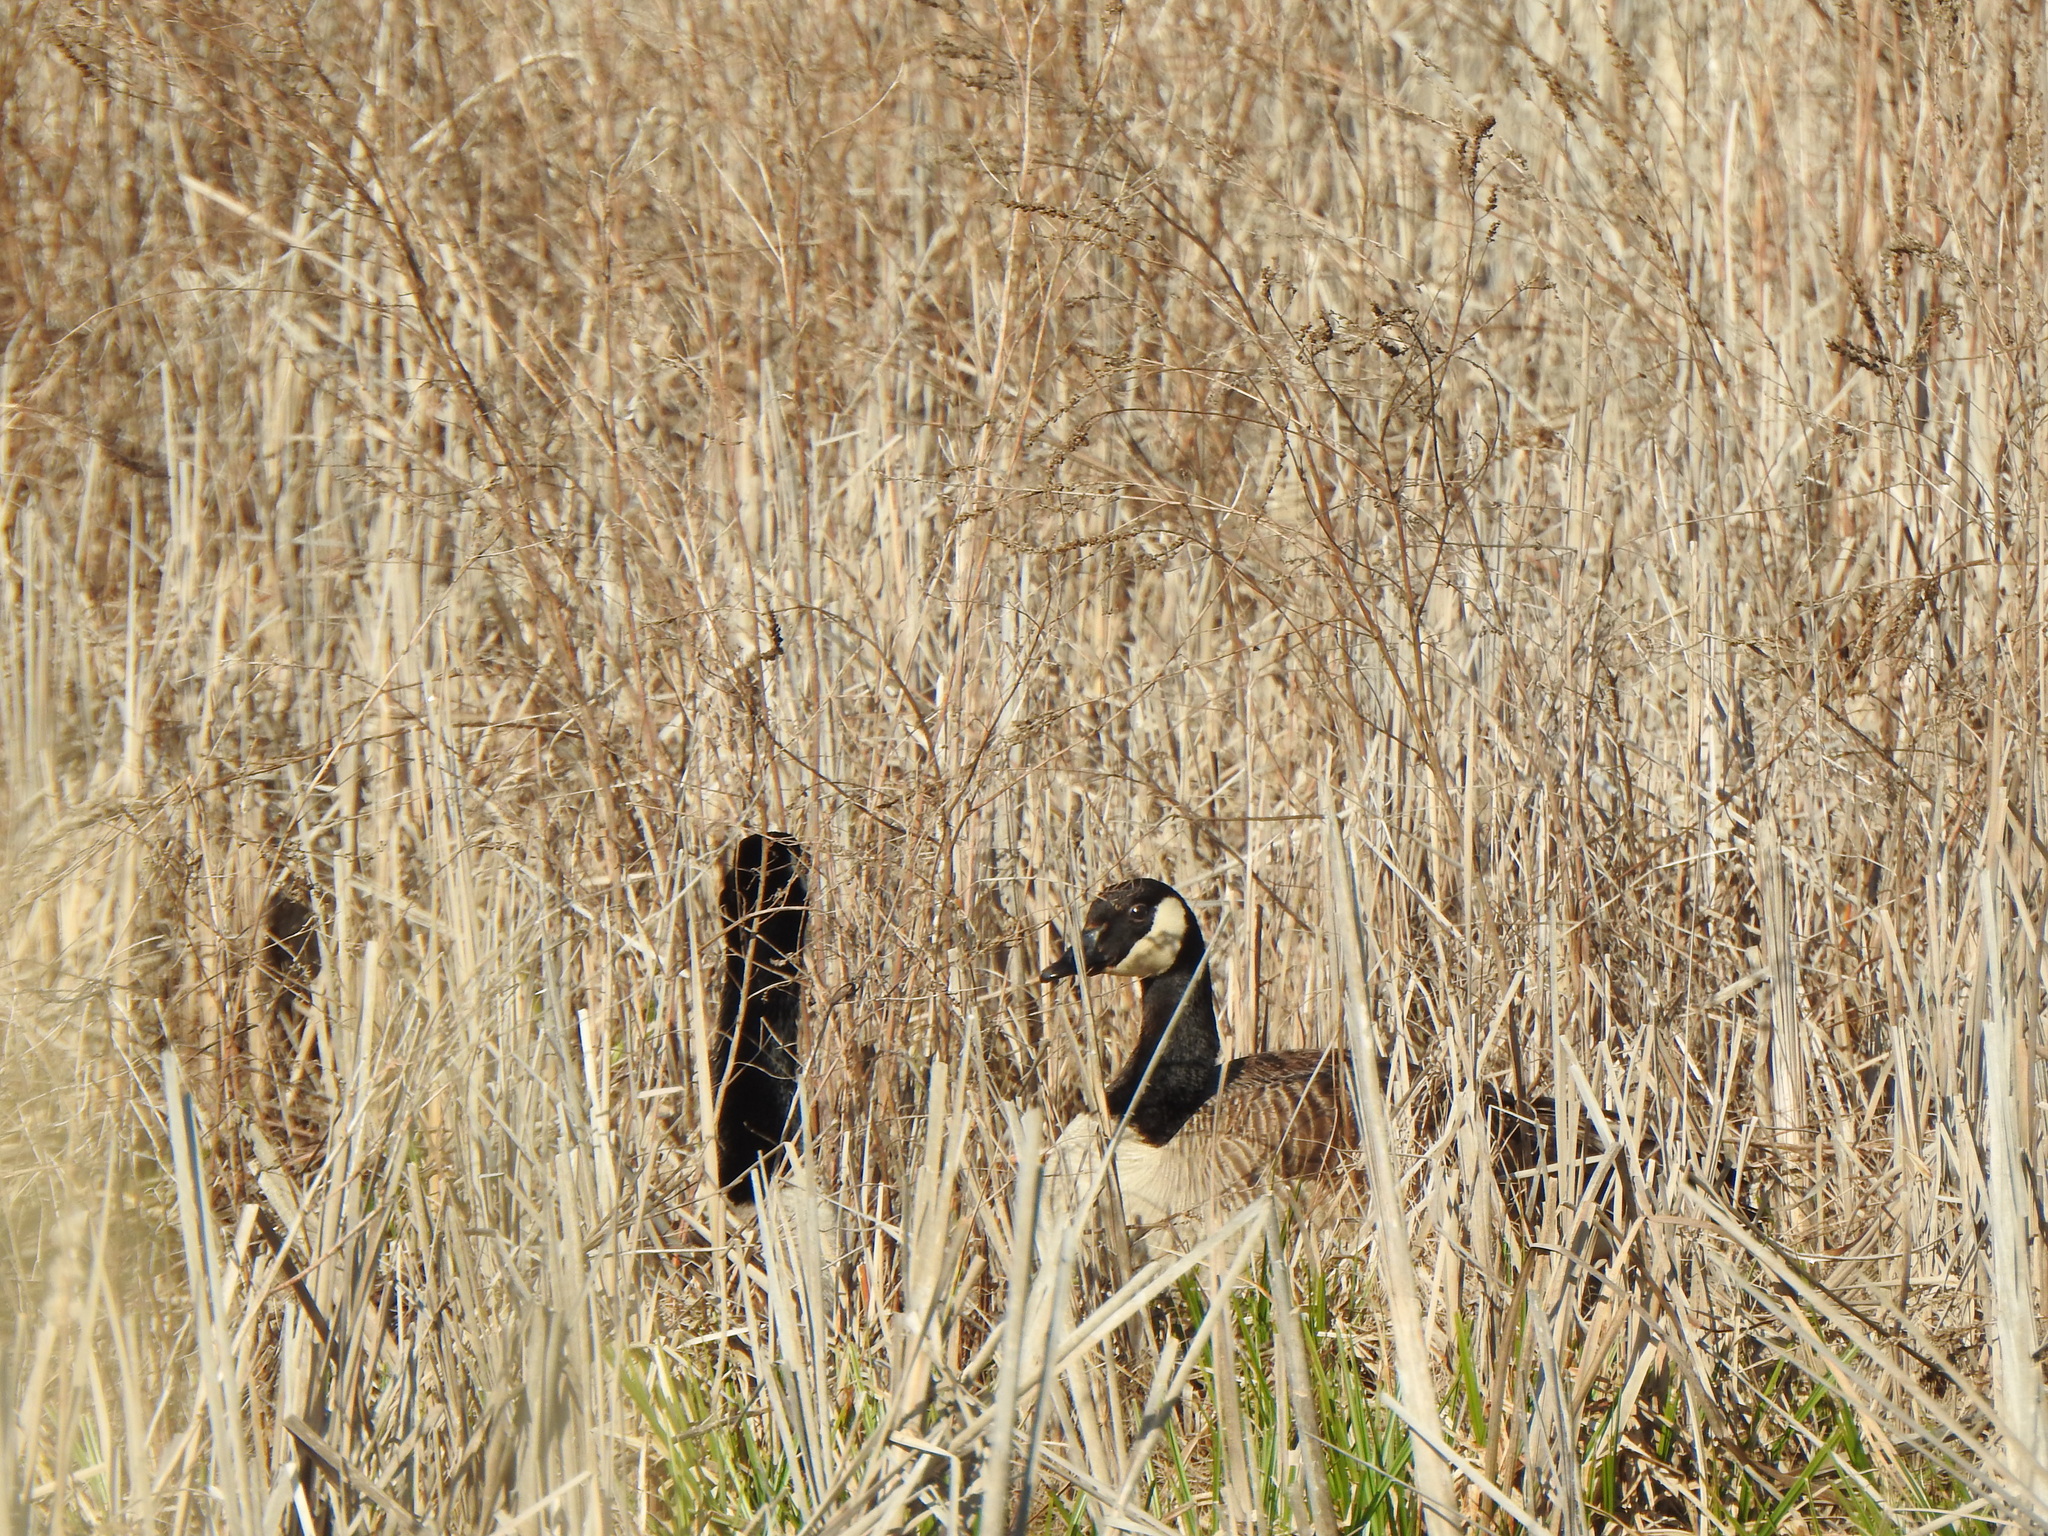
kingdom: Animalia
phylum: Chordata
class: Aves
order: Anseriformes
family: Anatidae
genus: Branta
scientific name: Branta canadensis
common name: Canada goose
